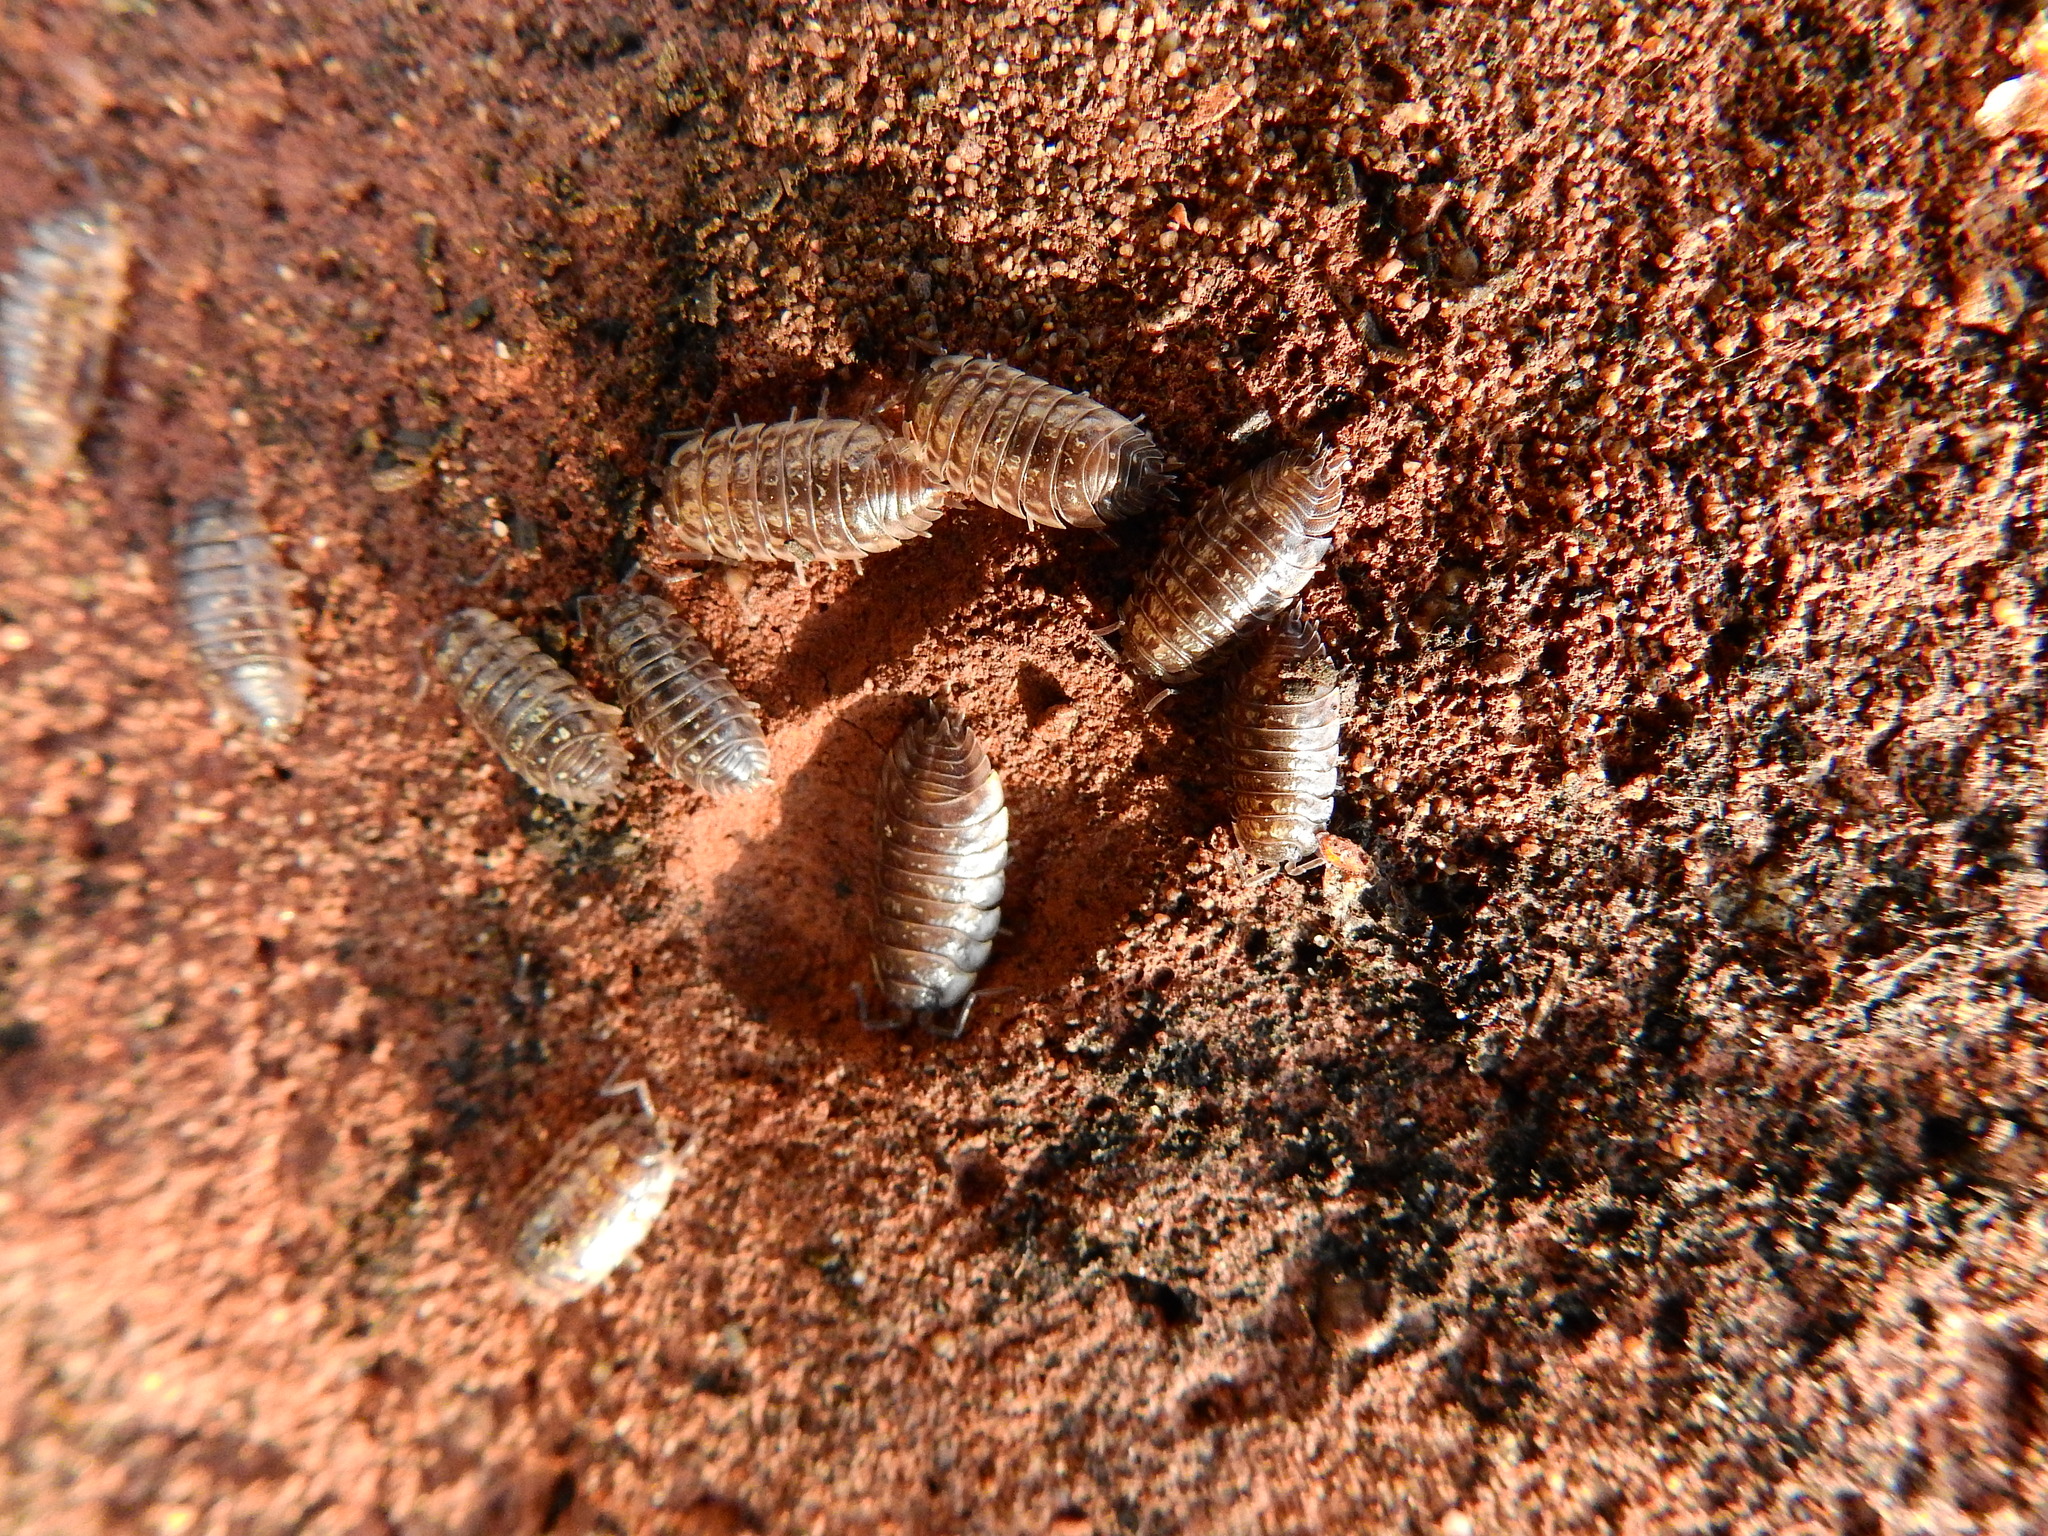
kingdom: Animalia
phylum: Arthropoda
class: Malacostraca
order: Isopoda
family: Oniscidae
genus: Oniscus
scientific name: Oniscus asellus
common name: Common shiny woodlouse
